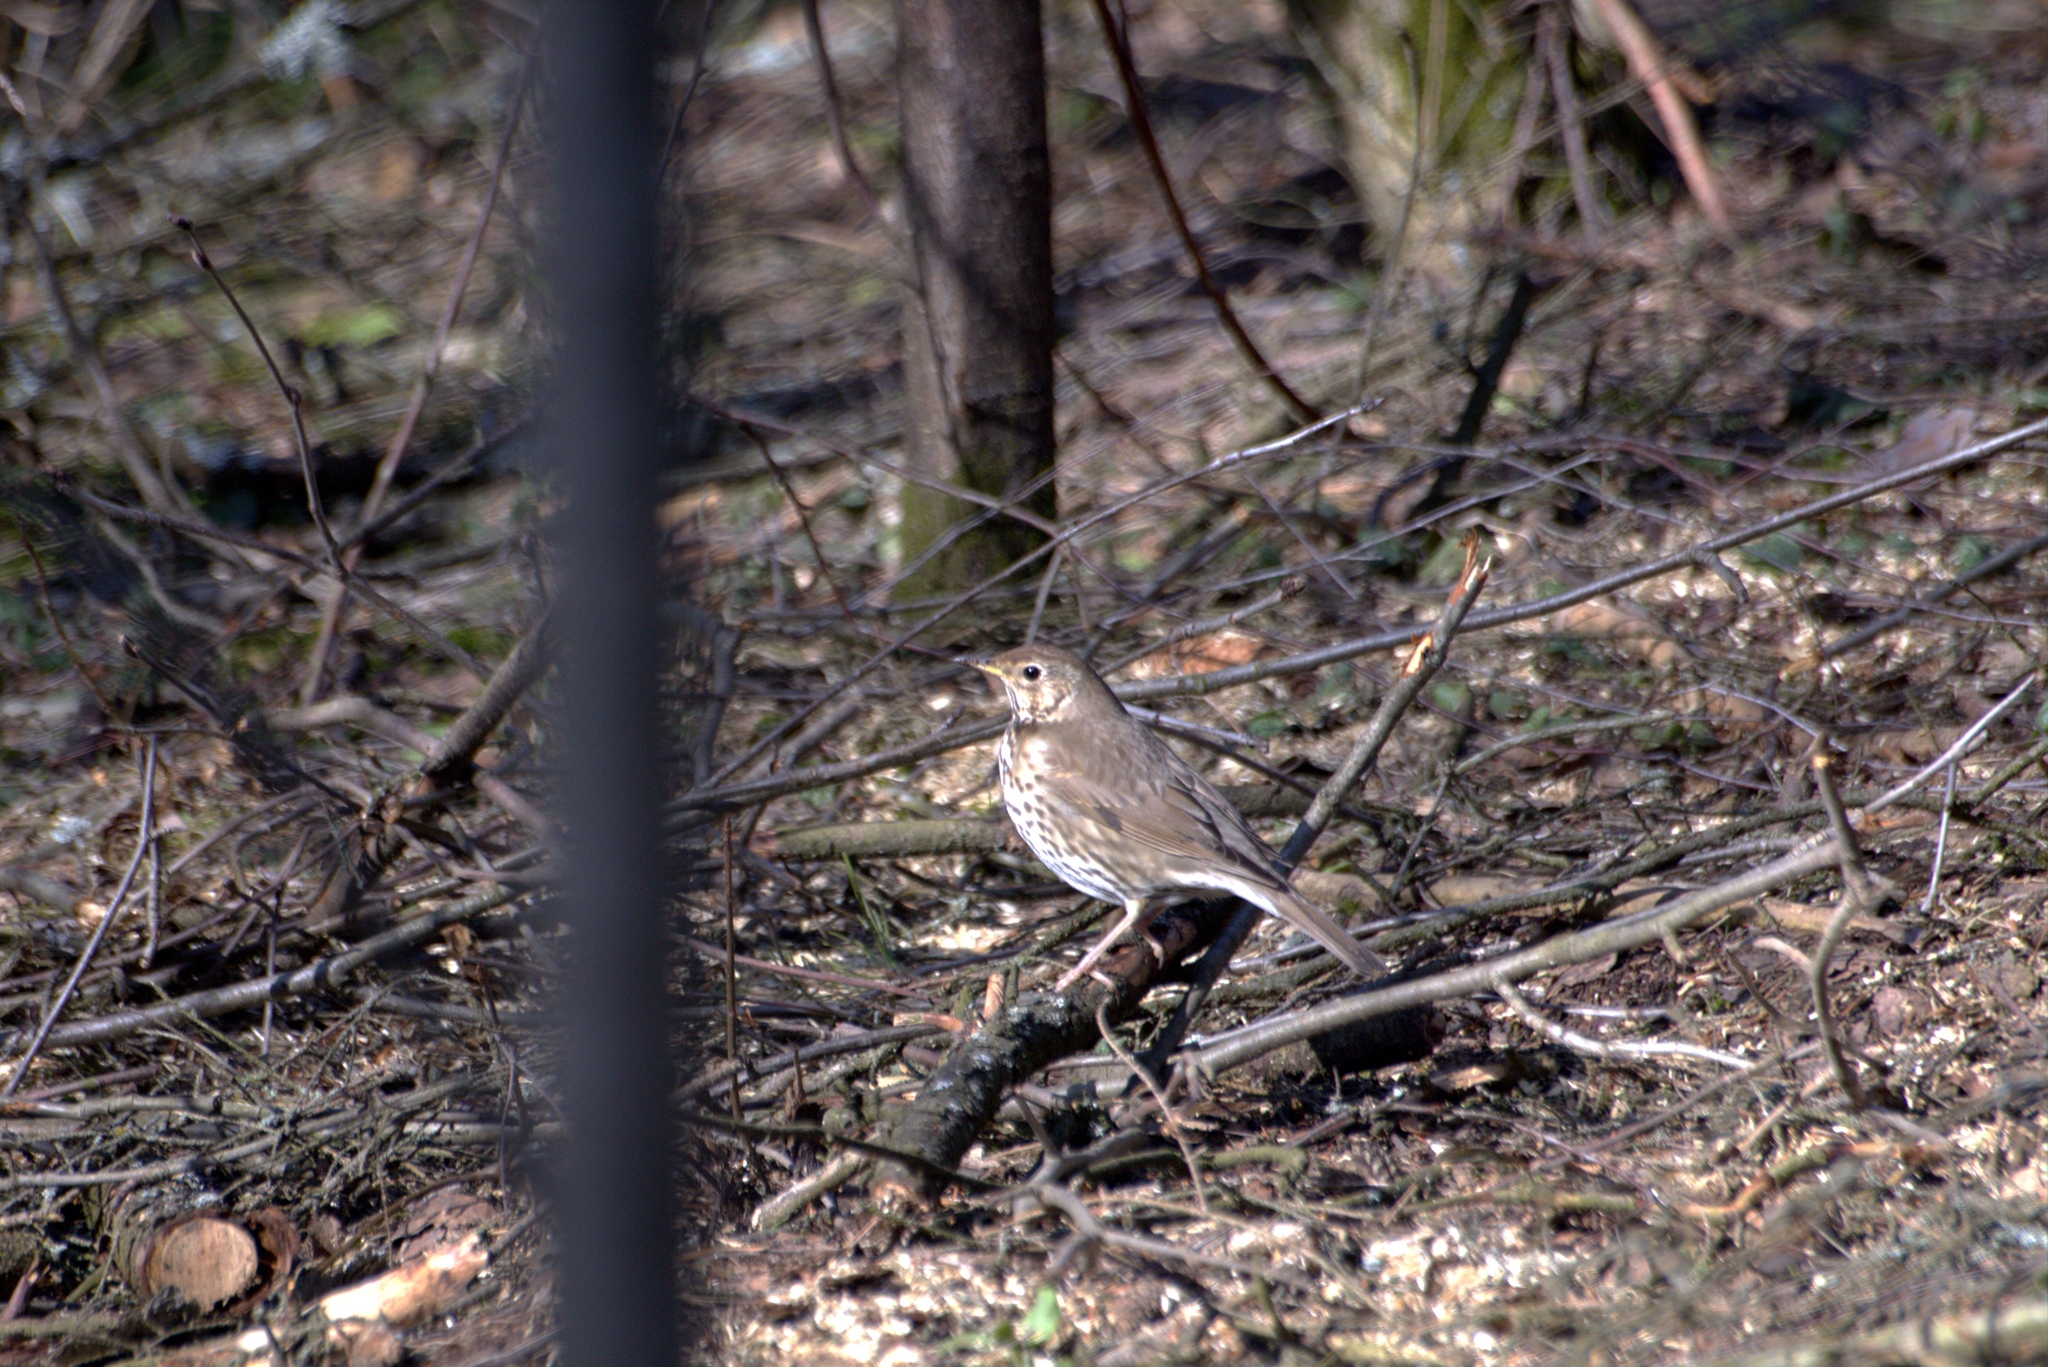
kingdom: Animalia
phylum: Chordata
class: Aves
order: Passeriformes
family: Turdidae
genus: Turdus
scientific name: Turdus philomelos
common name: Song thrush
